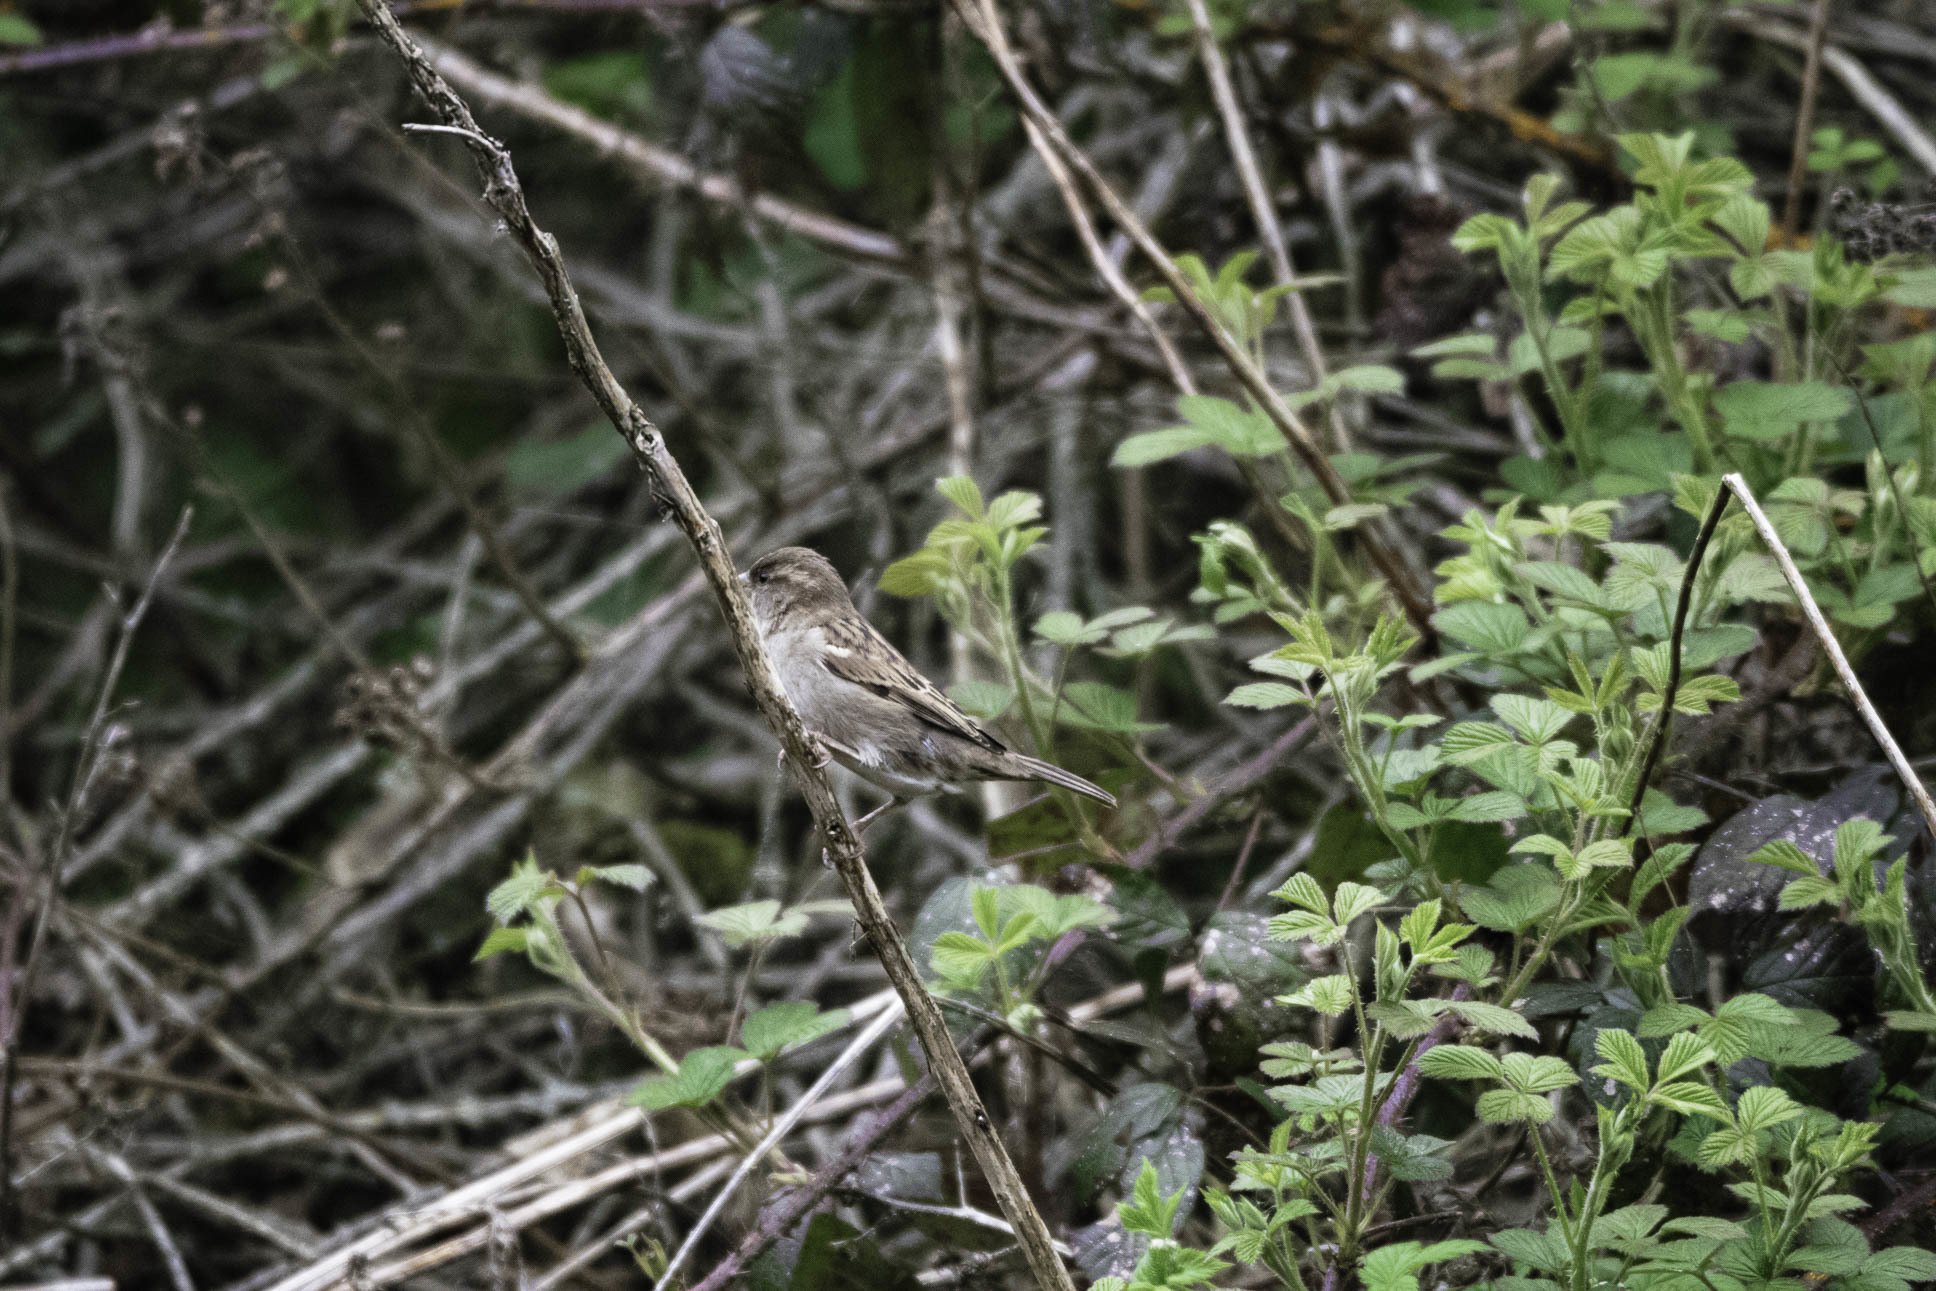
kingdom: Animalia
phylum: Chordata
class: Aves
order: Passeriformes
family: Passeridae
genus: Passer
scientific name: Passer domesticus
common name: House sparrow
